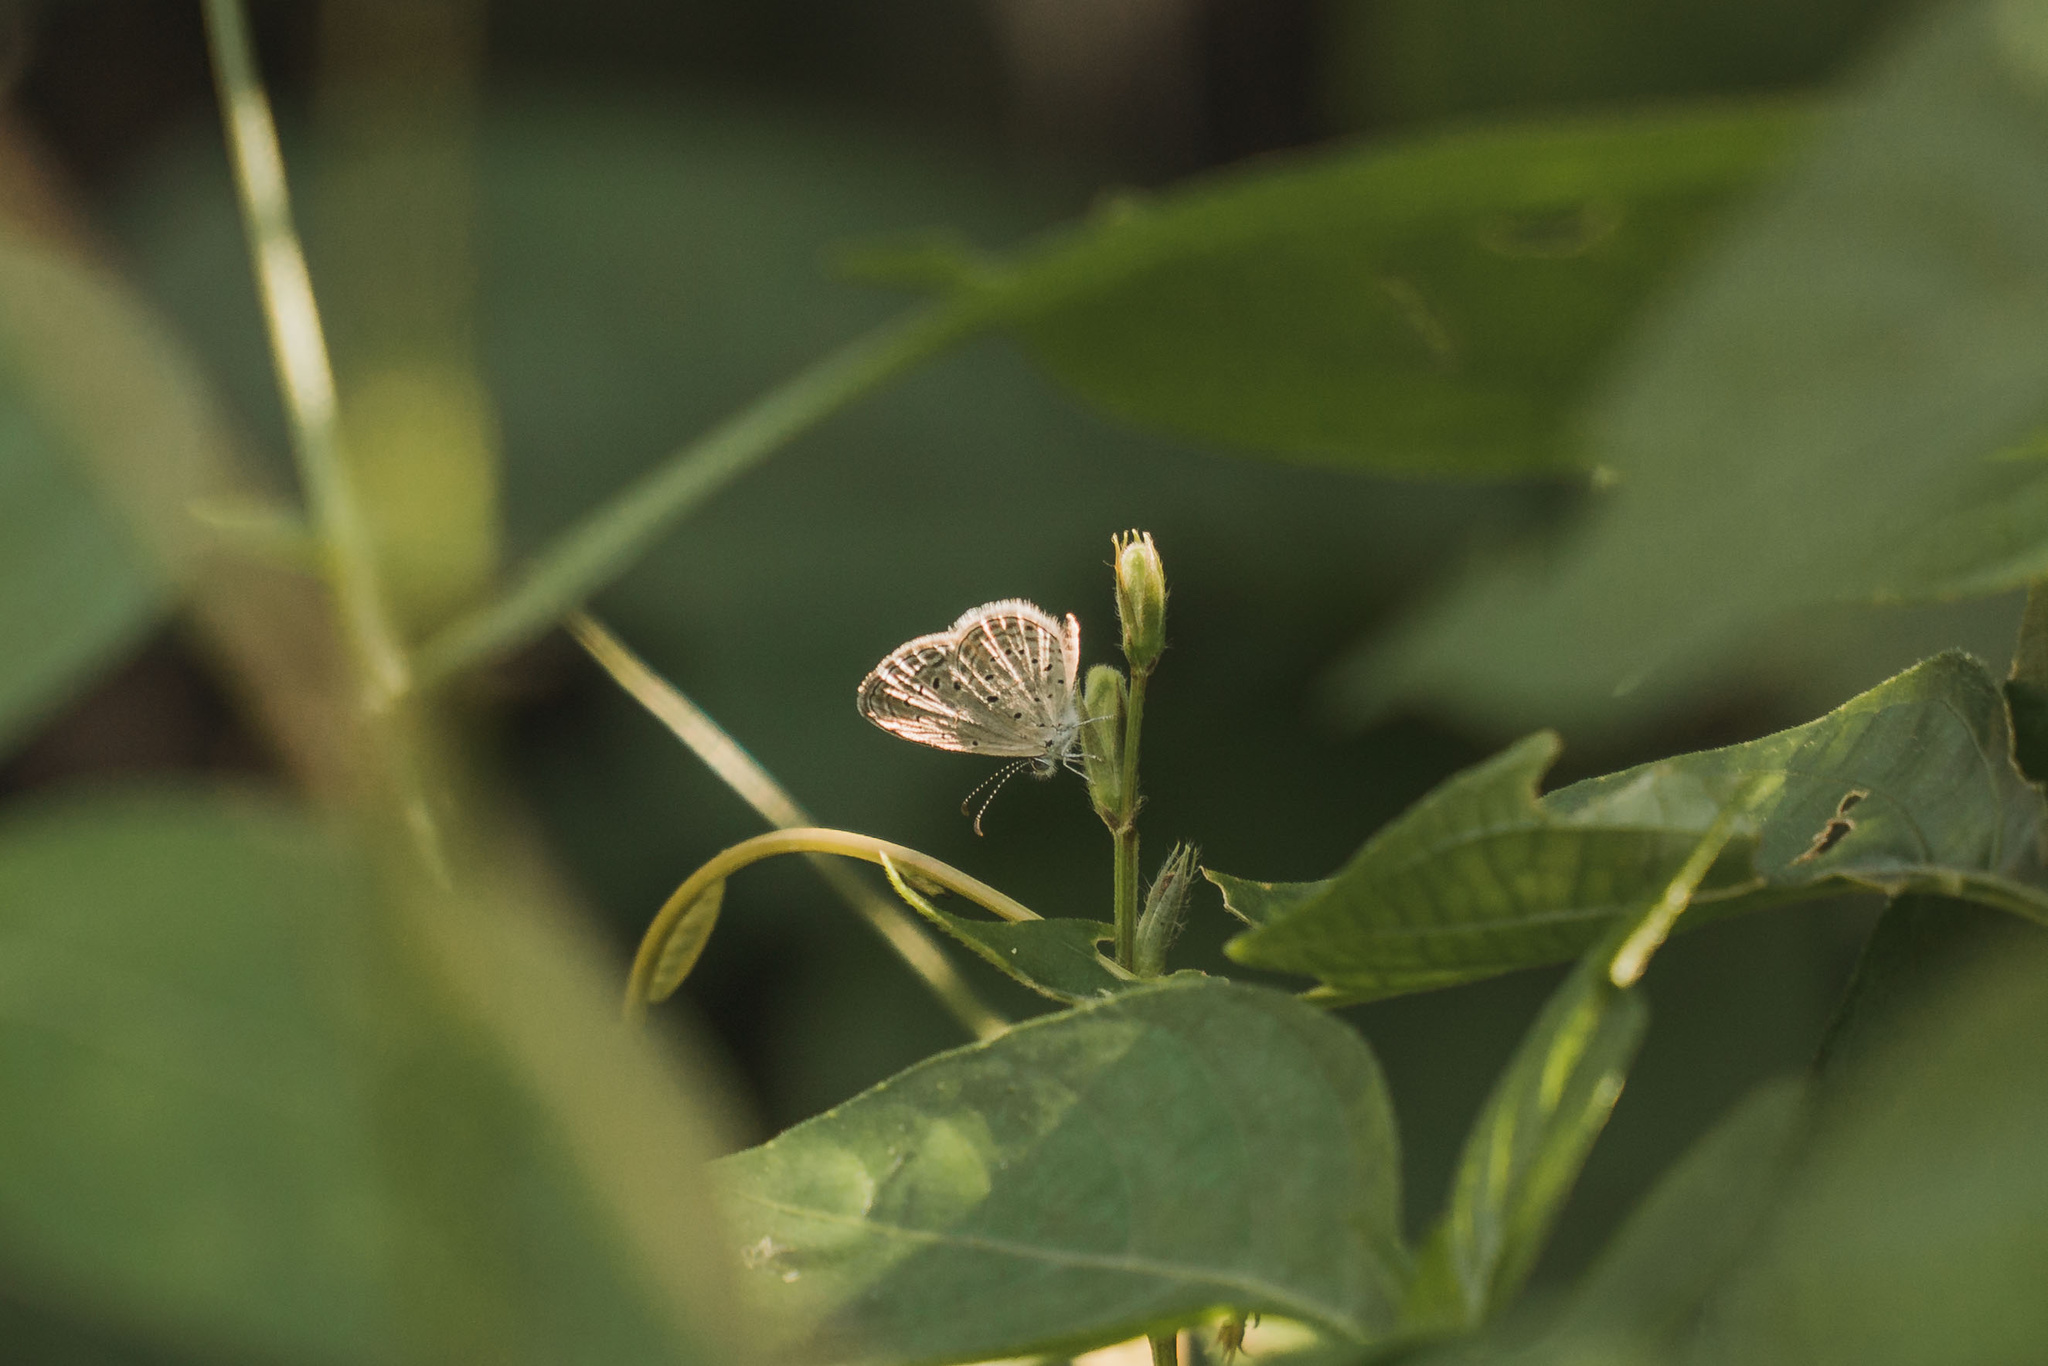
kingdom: Animalia
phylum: Arthropoda
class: Insecta
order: Lepidoptera
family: Lycaenidae
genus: Zizula
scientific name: Zizula hylax
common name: Gaika blue
